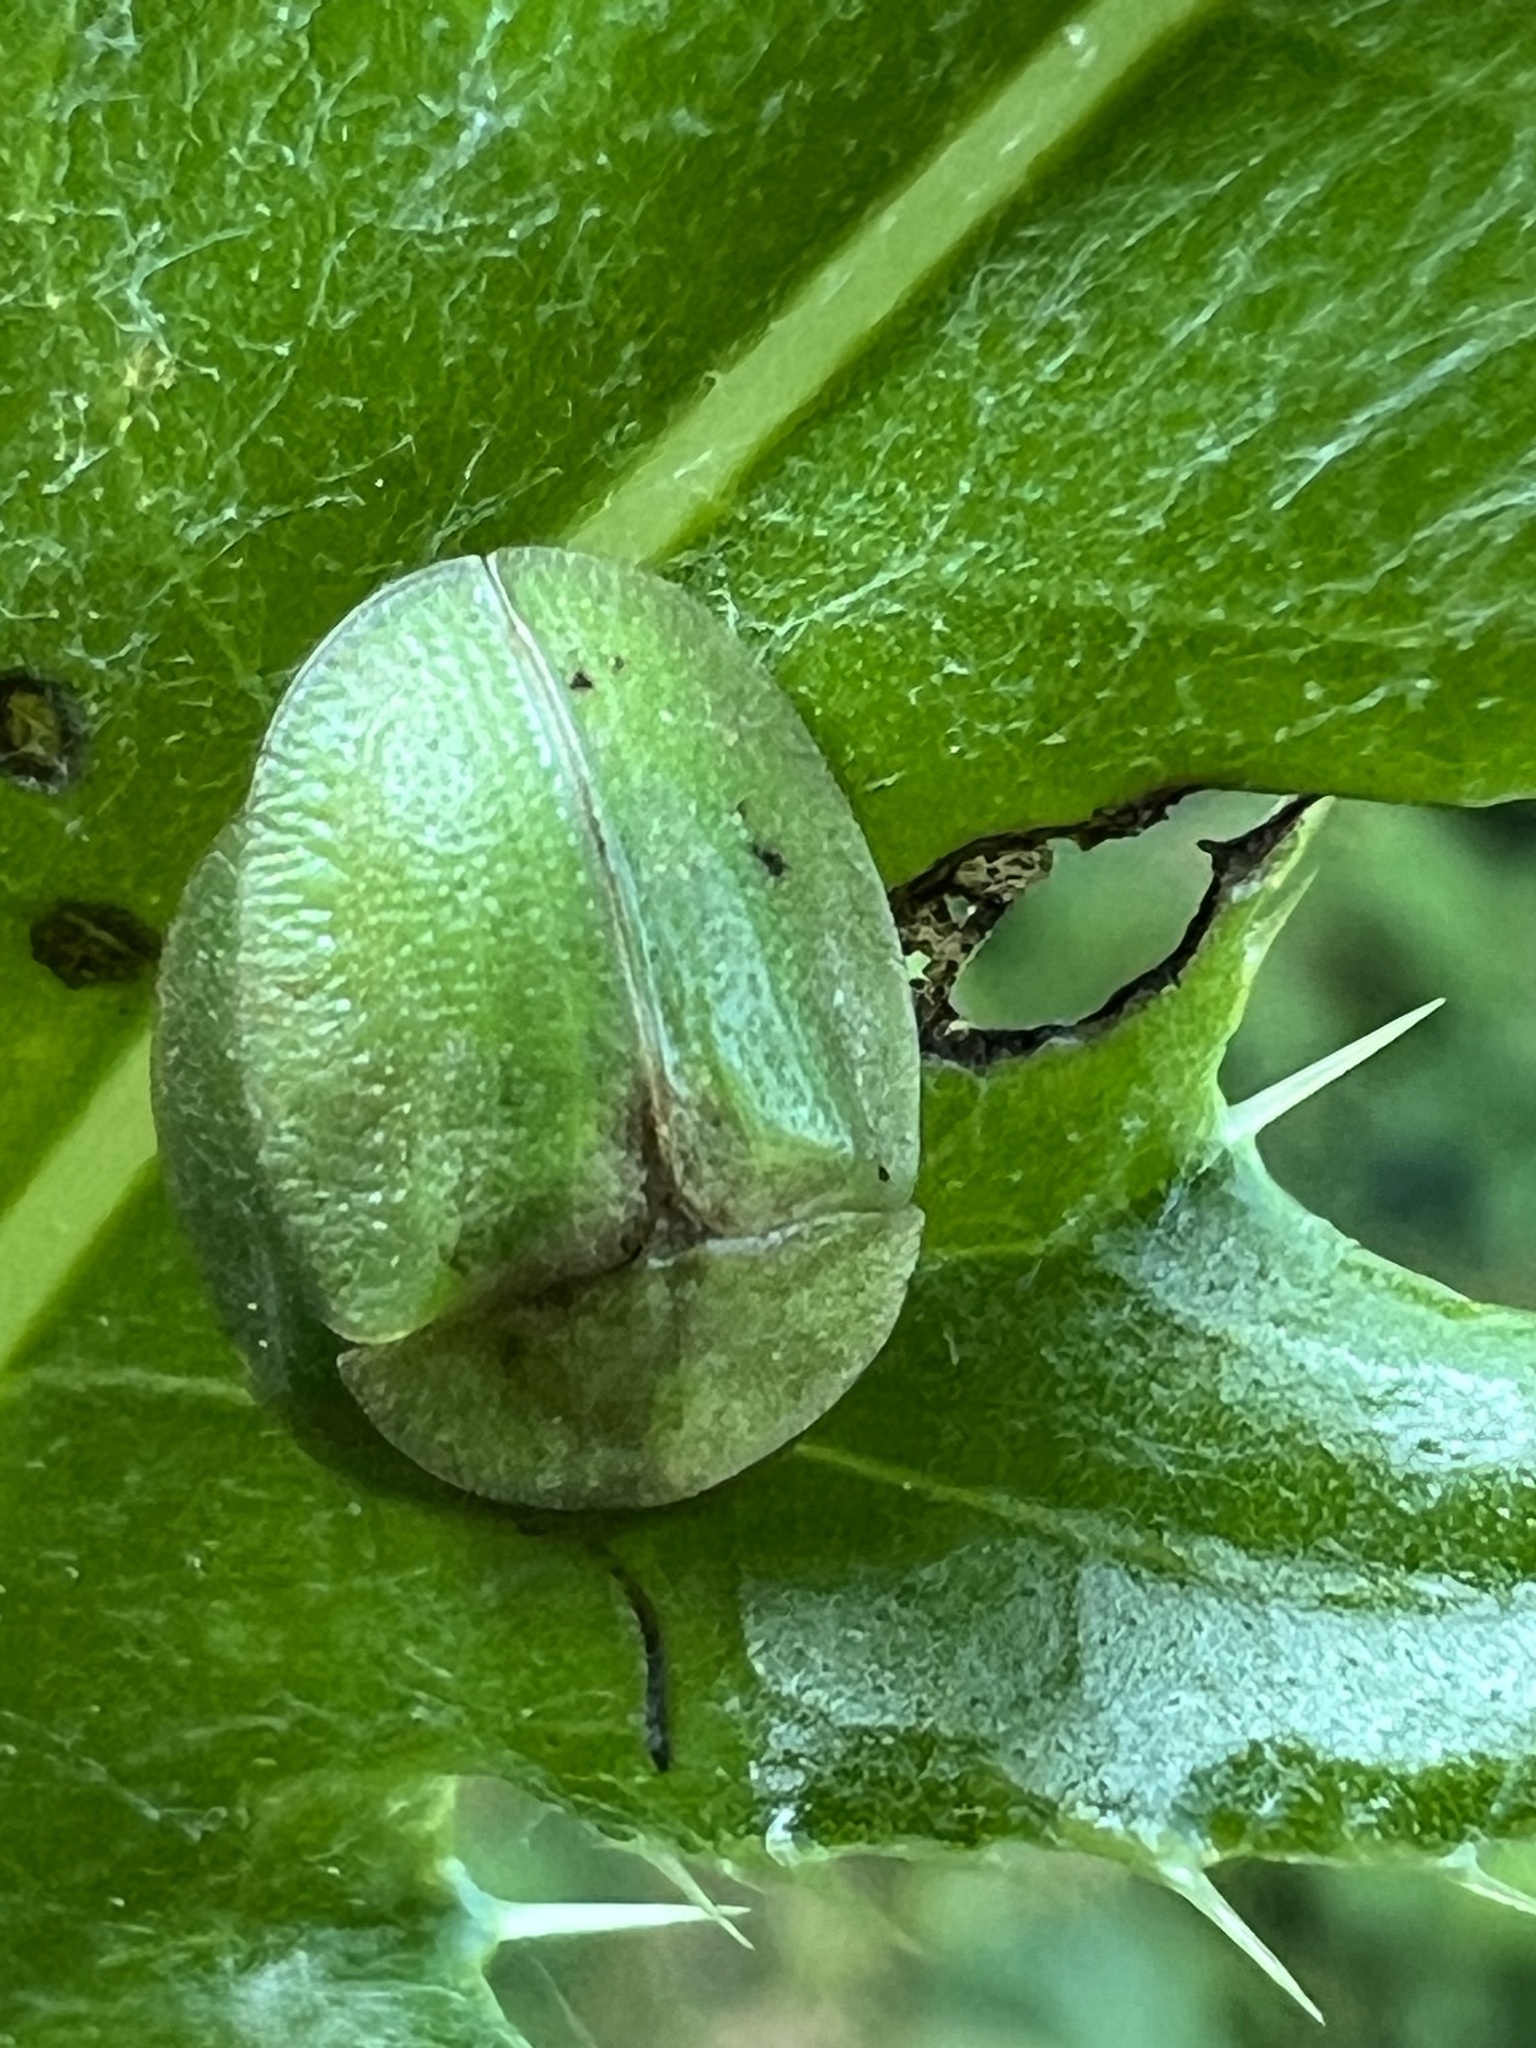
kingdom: Animalia
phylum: Arthropoda
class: Insecta
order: Coleoptera
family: Chrysomelidae
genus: Cassida
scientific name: Cassida rubiginosa
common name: Thistle tortoise beetle
